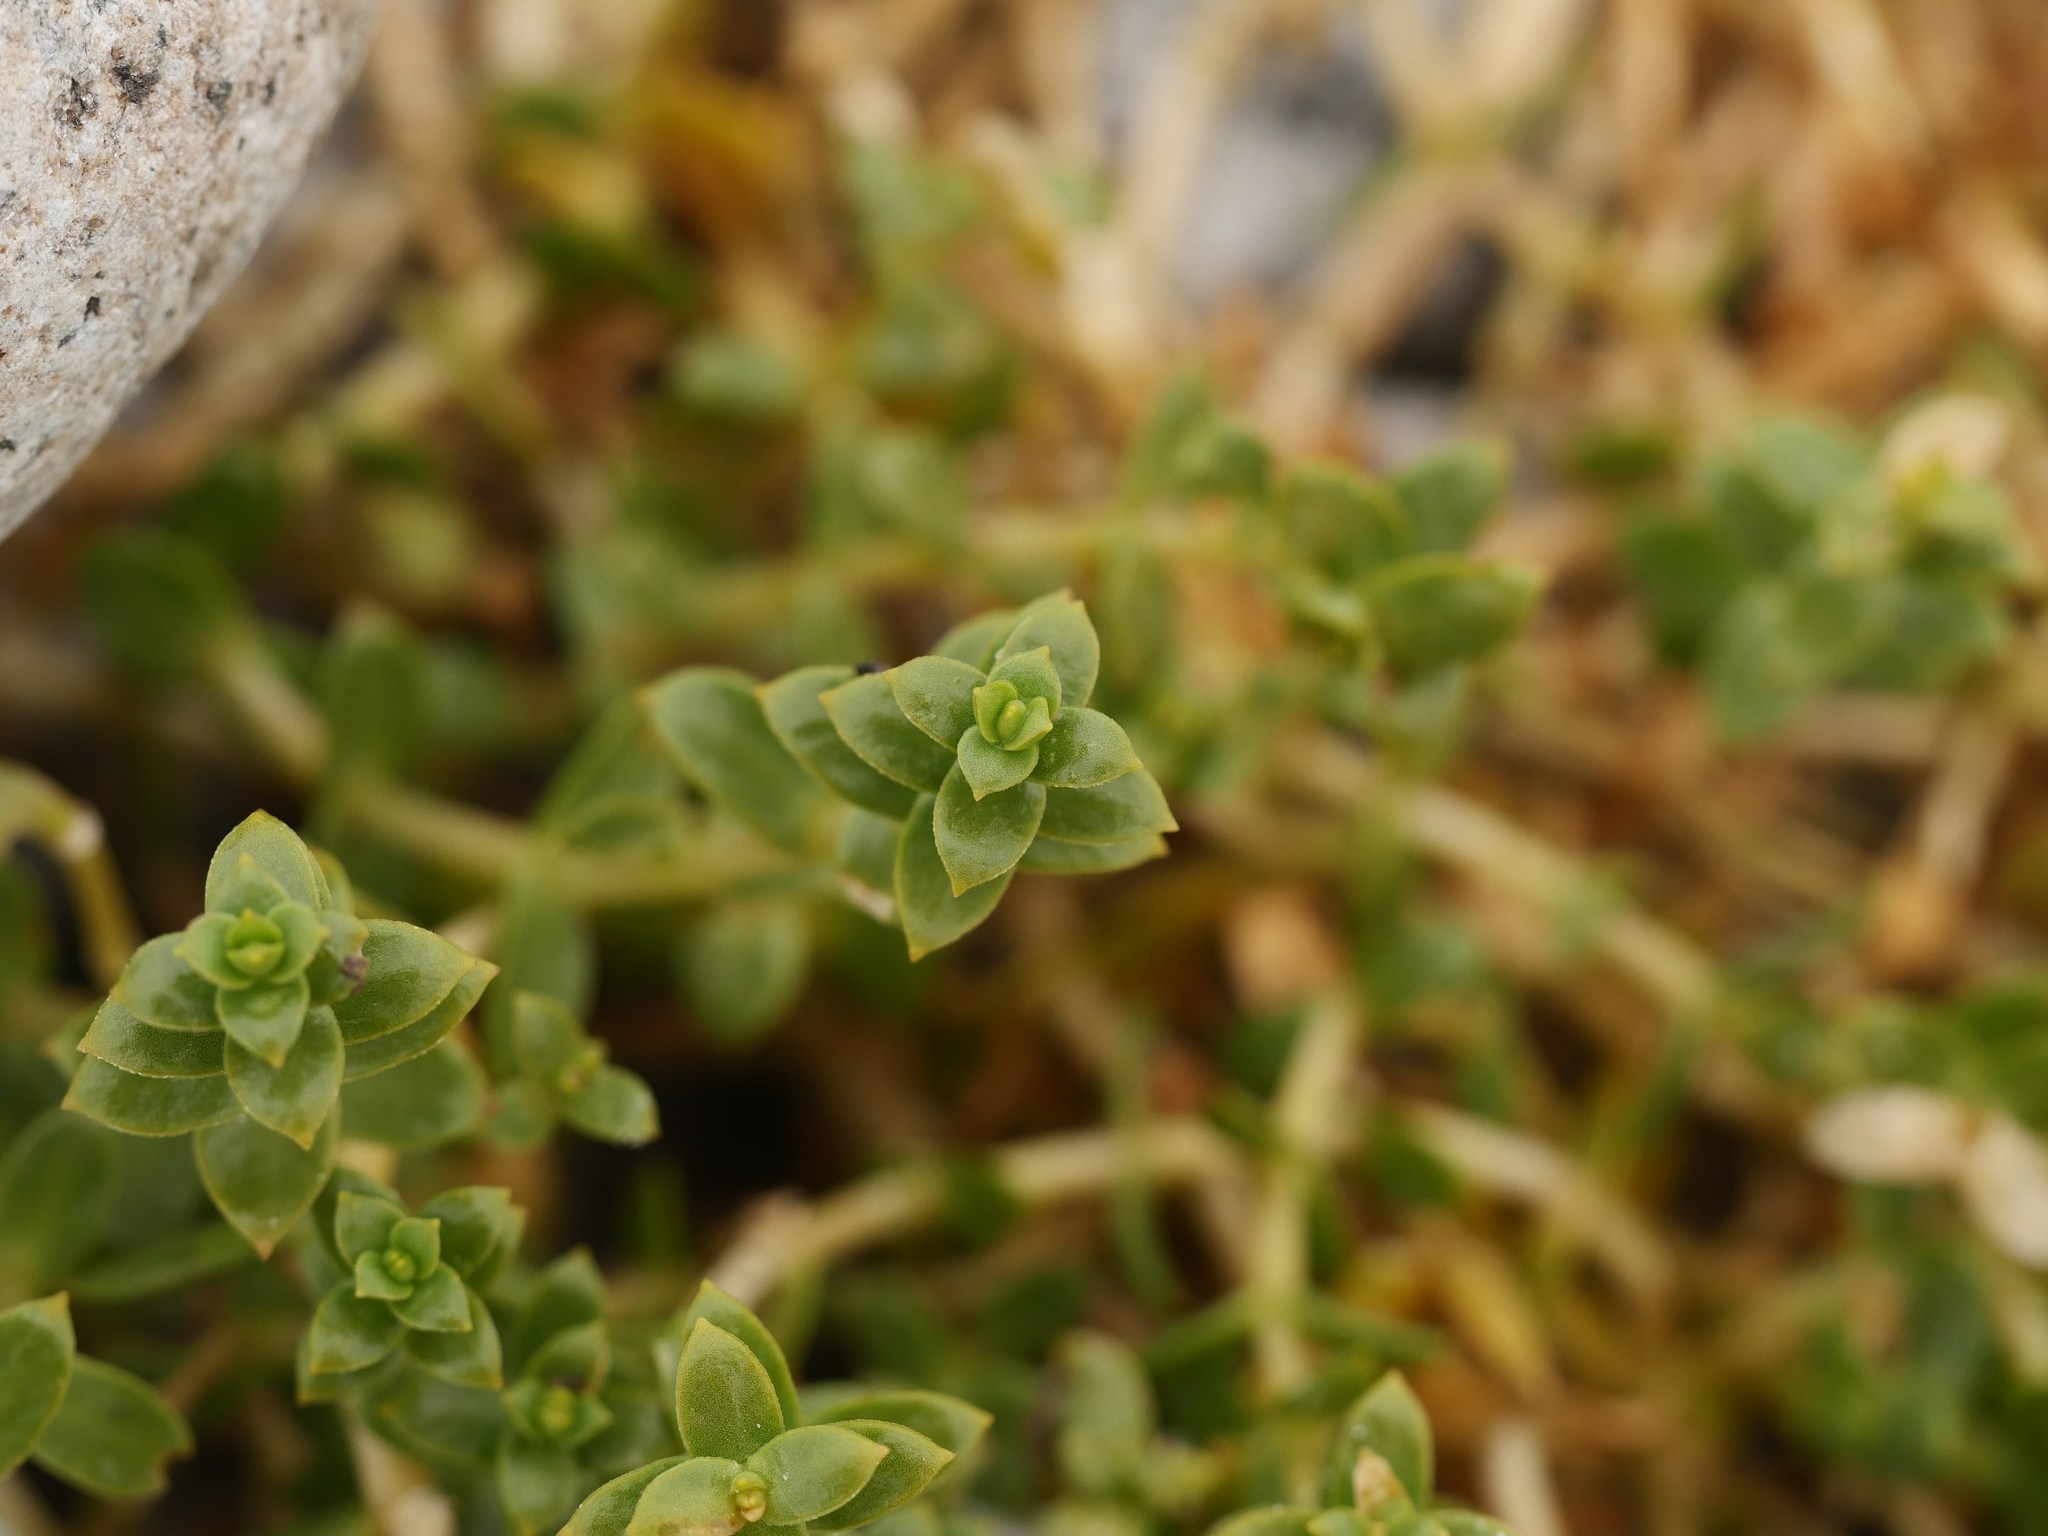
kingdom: Plantae
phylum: Tracheophyta
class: Magnoliopsida
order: Caryophyllales
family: Caryophyllaceae
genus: Honckenya
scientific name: Honckenya peploides
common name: Sea sandwort
